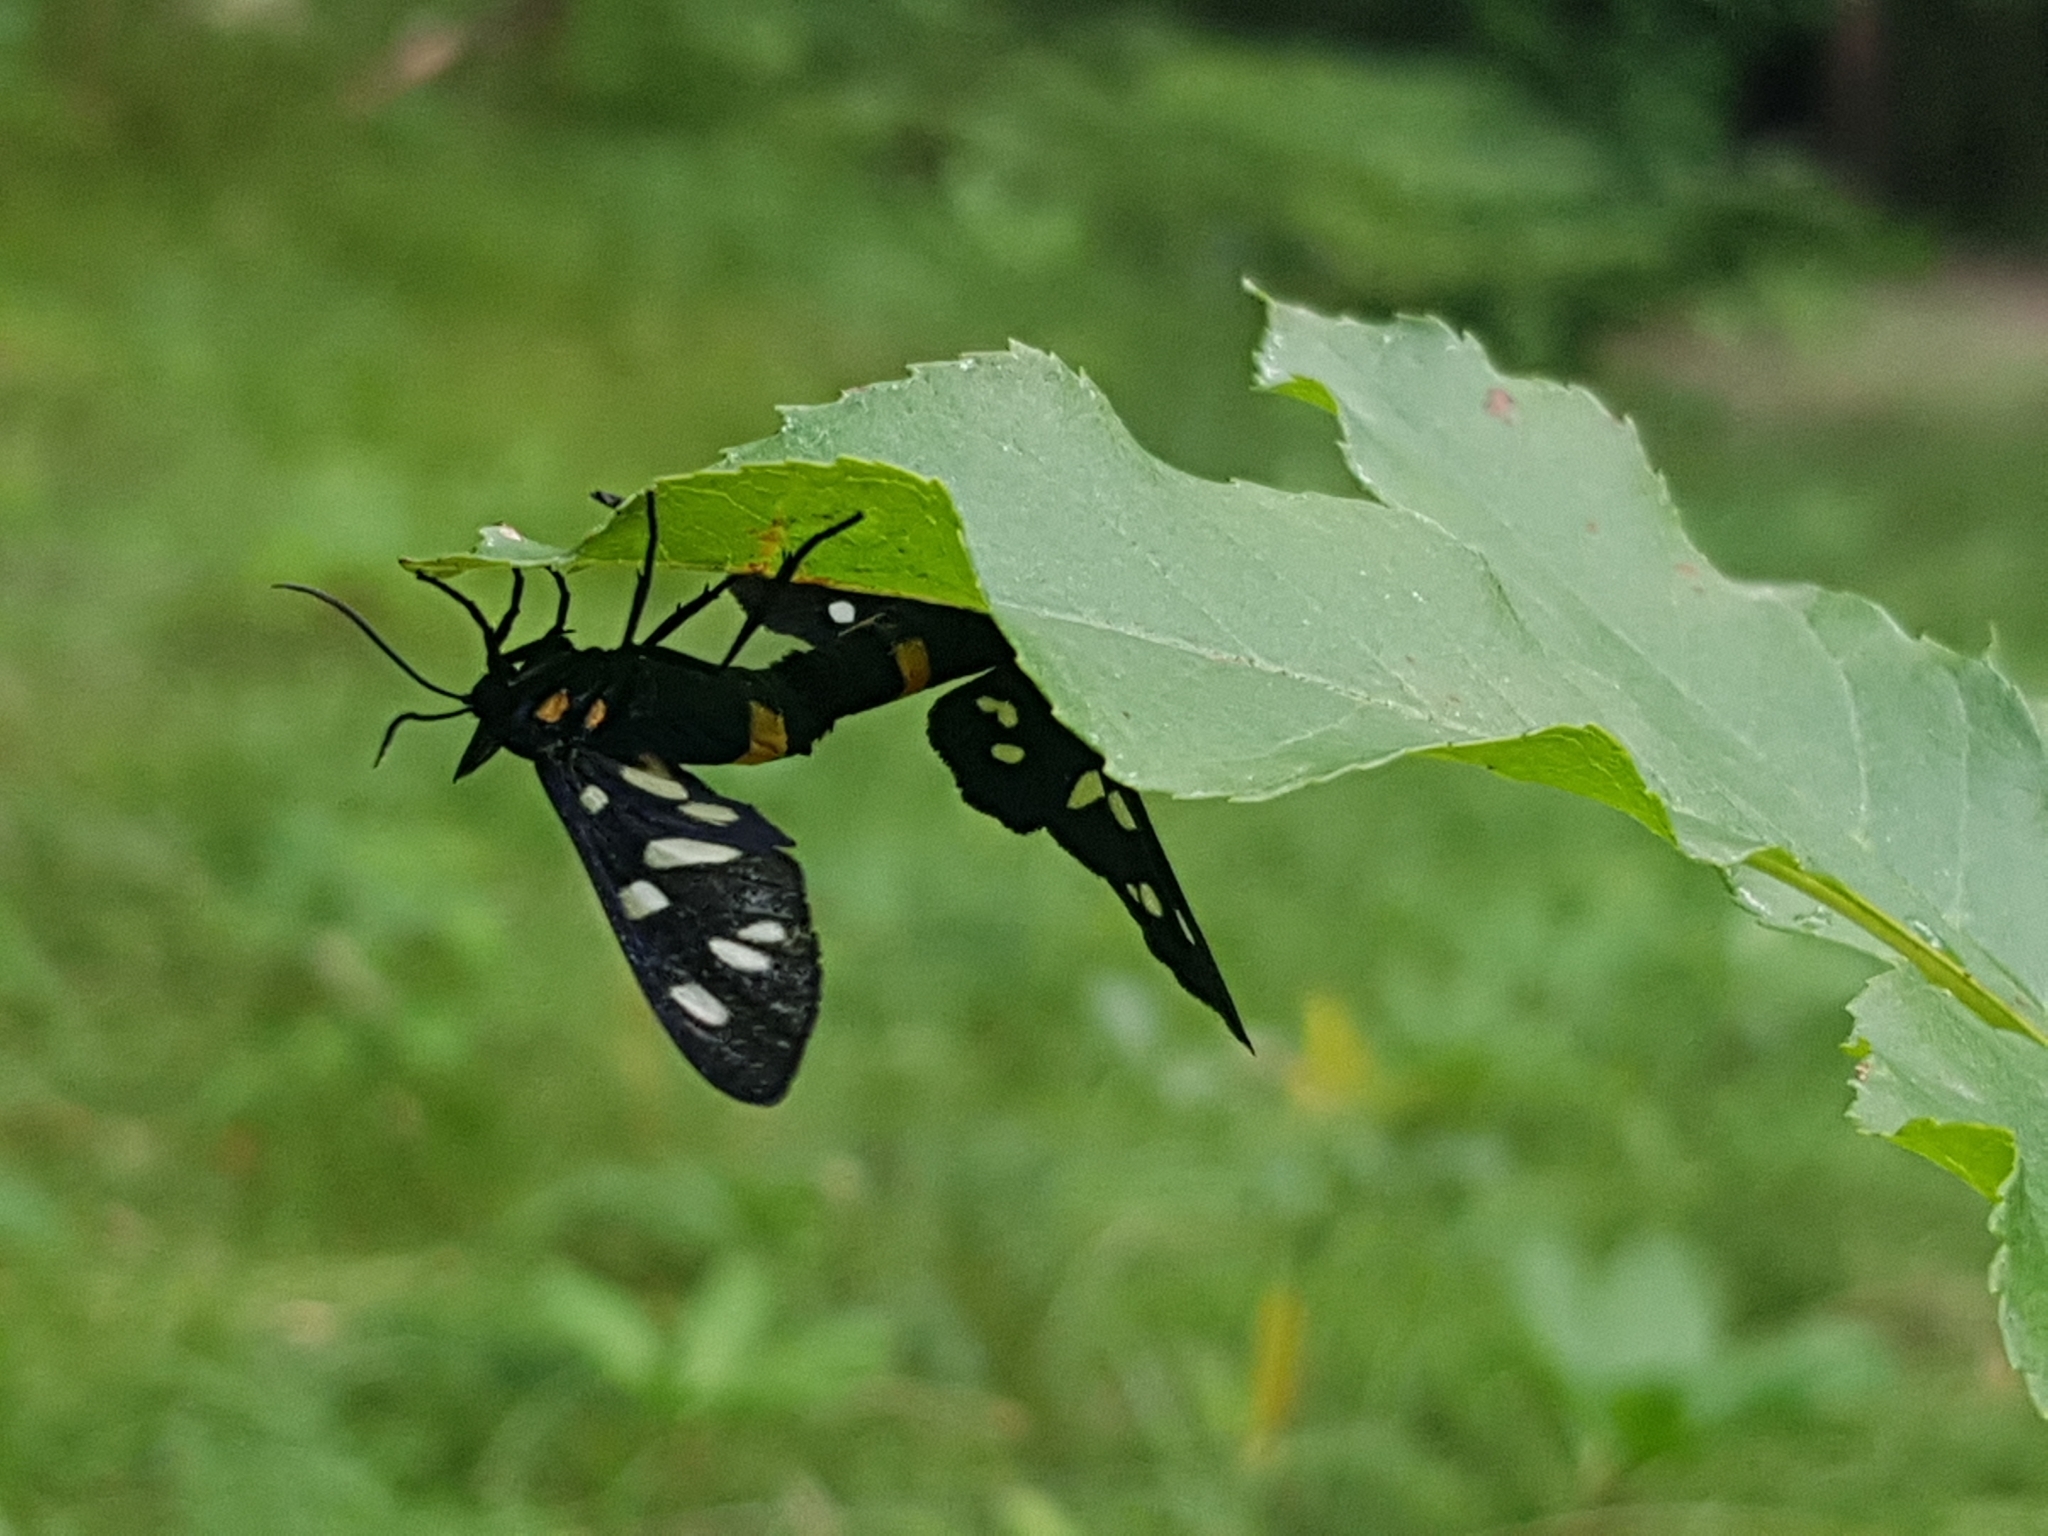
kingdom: Animalia
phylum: Arthropoda
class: Insecta
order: Lepidoptera
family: Erebidae
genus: Amata
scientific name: Amata phegea
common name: Nine-spotted
